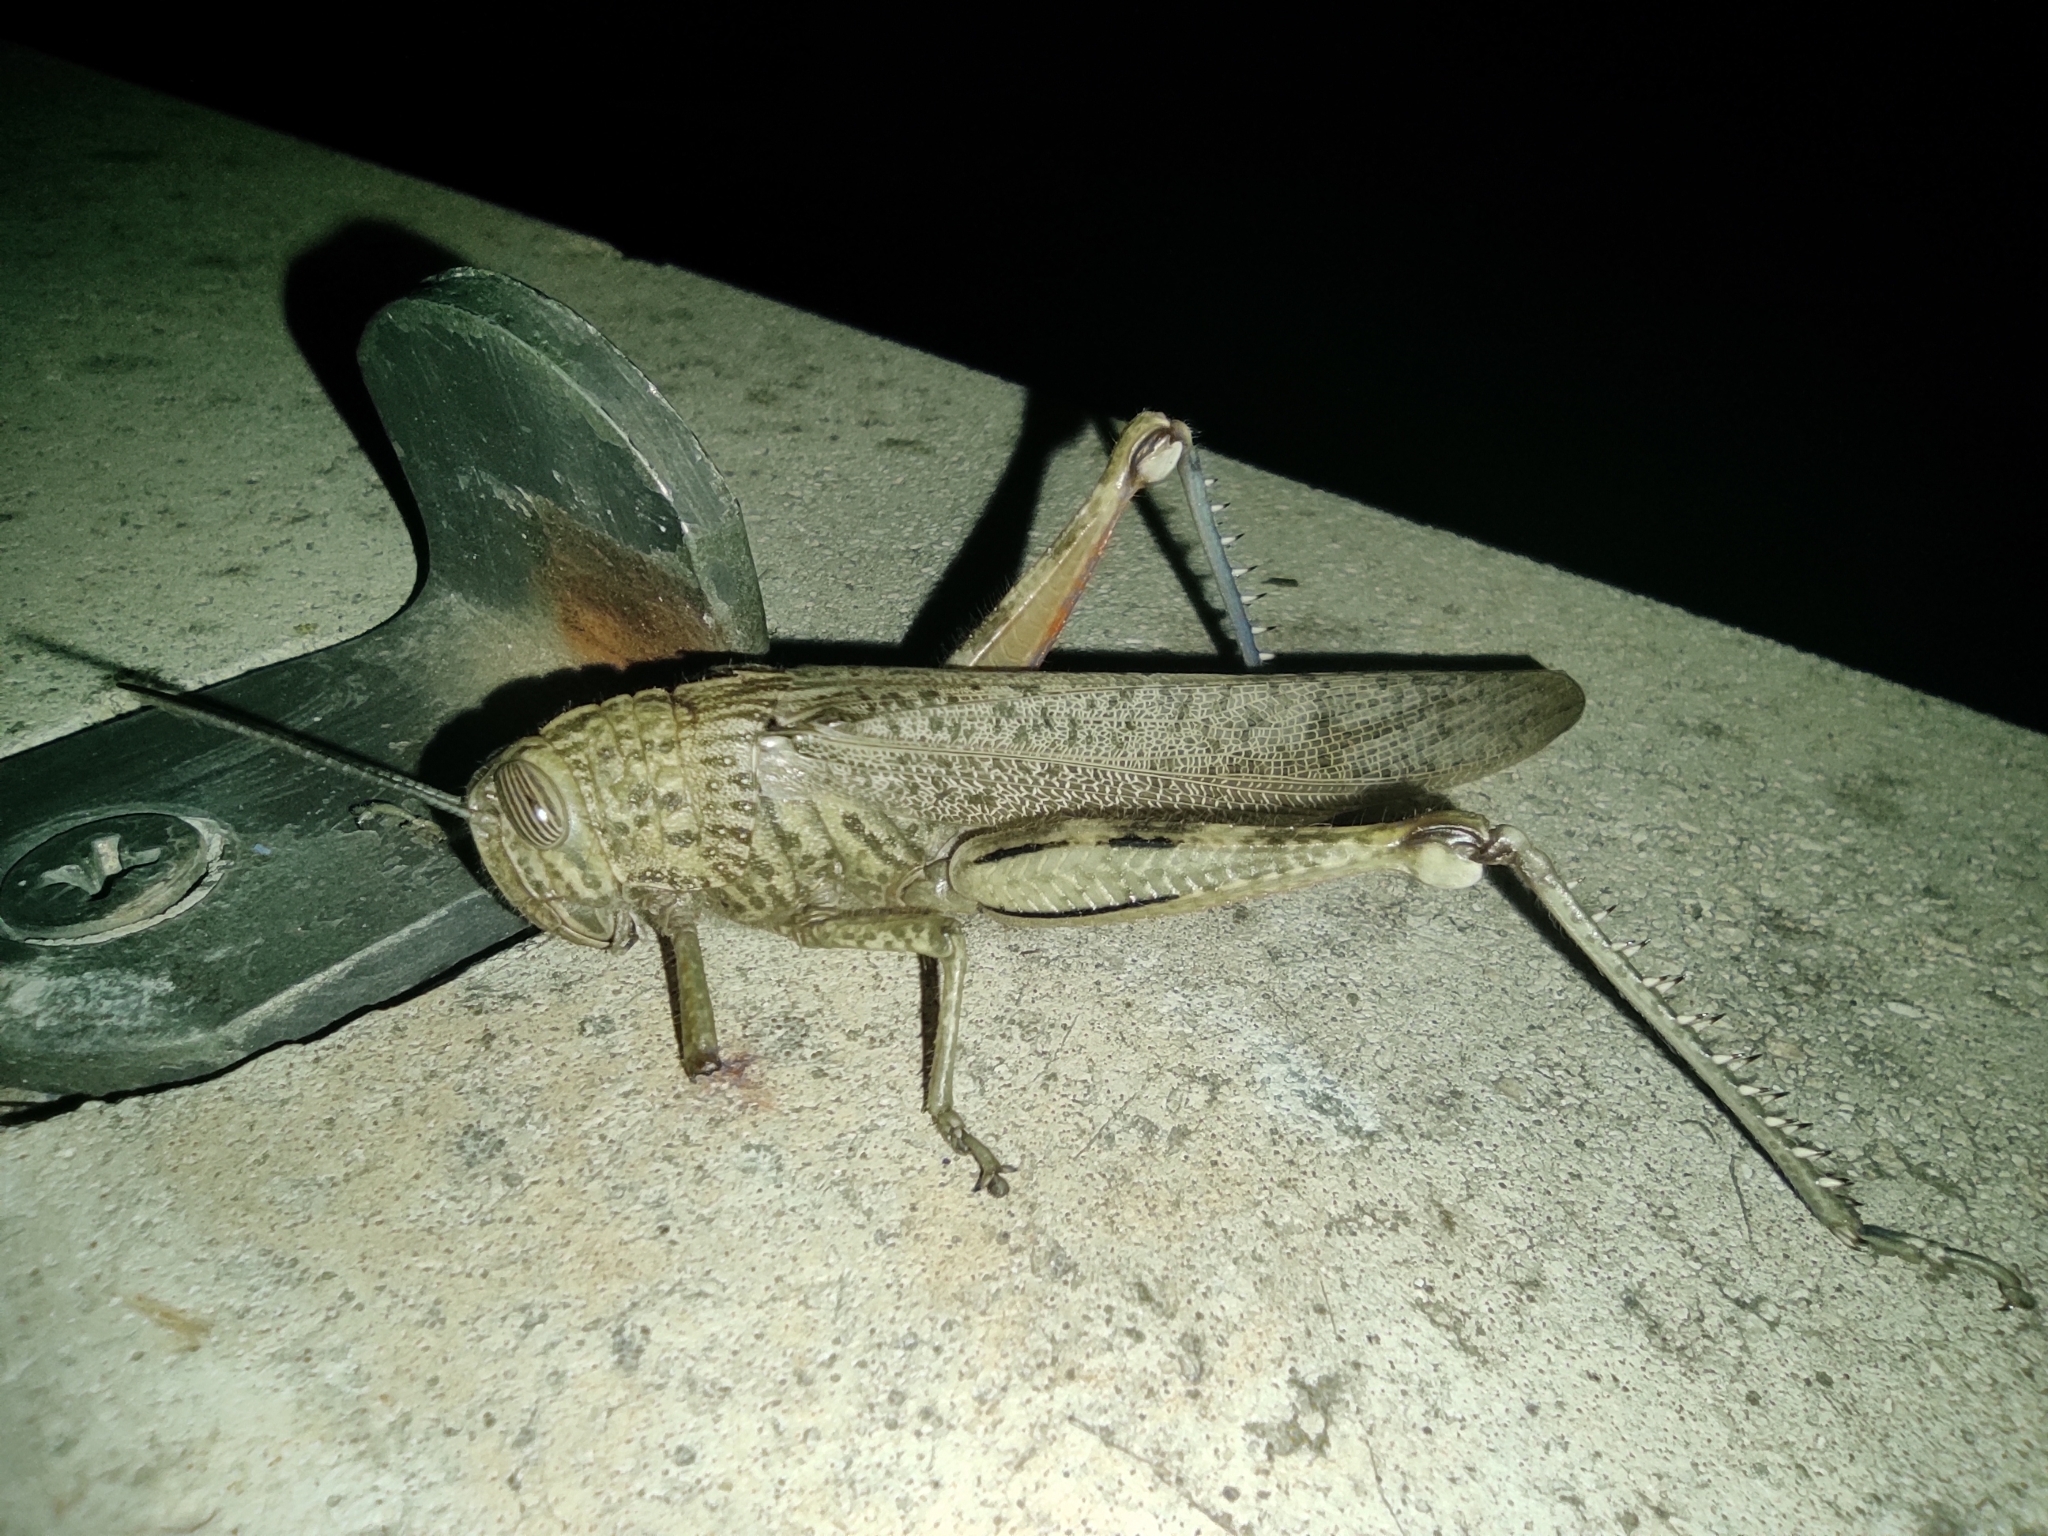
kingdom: Animalia
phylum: Arthropoda
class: Insecta
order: Orthoptera
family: Acrididae
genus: Anacridium
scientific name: Anacridium aegyptium
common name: Egyptian grasshopper
